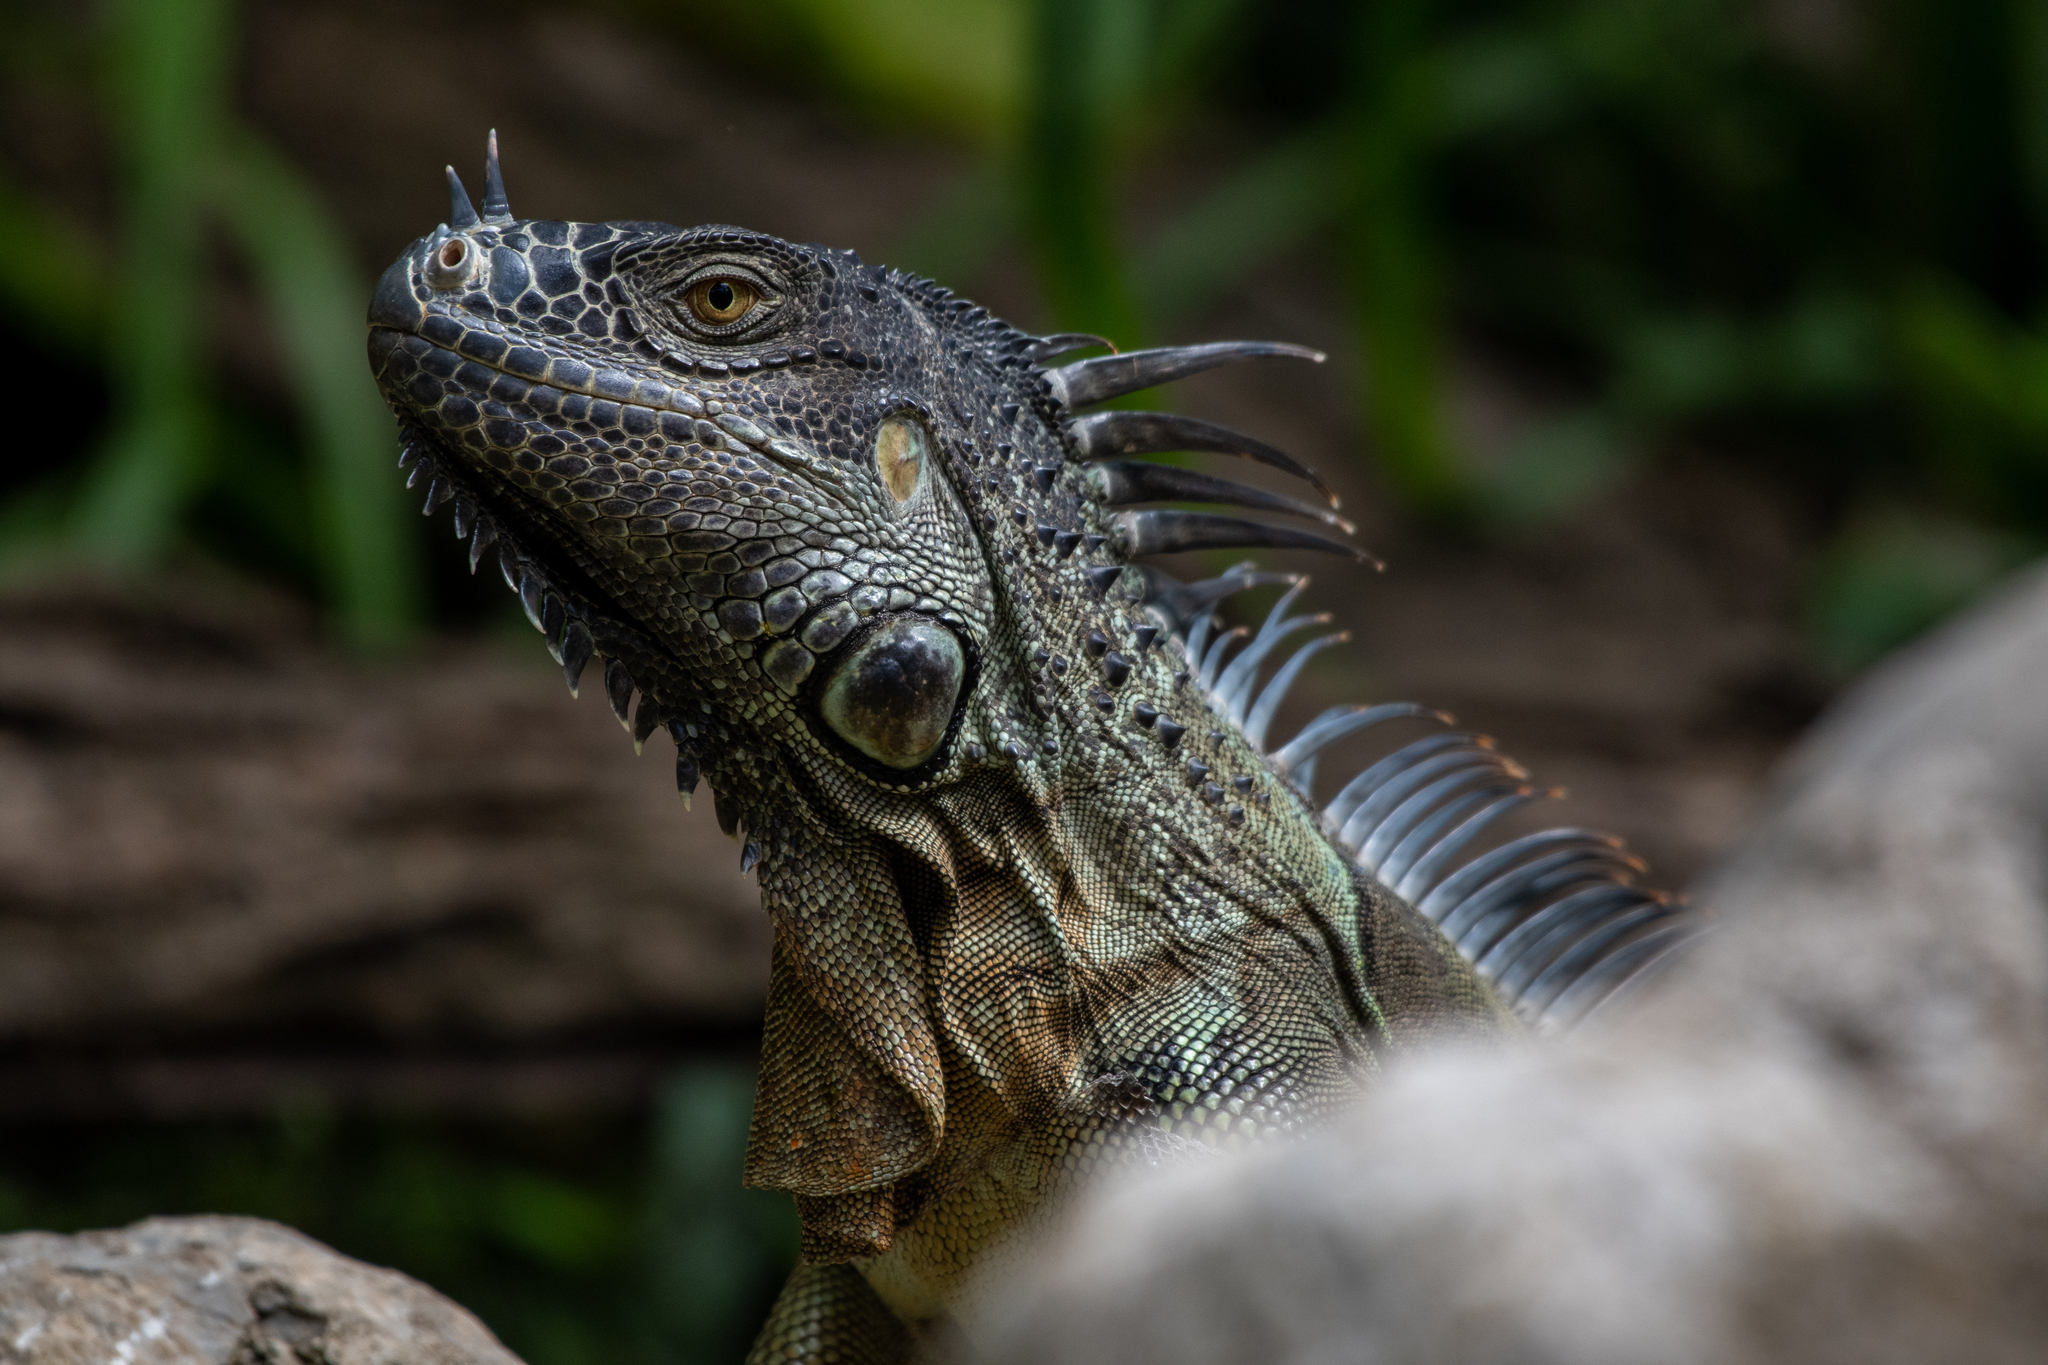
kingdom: Animalia
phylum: Chordata
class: Squamata
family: Iguanidae
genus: Iguana
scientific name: Iguana iguana
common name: Green iguana
